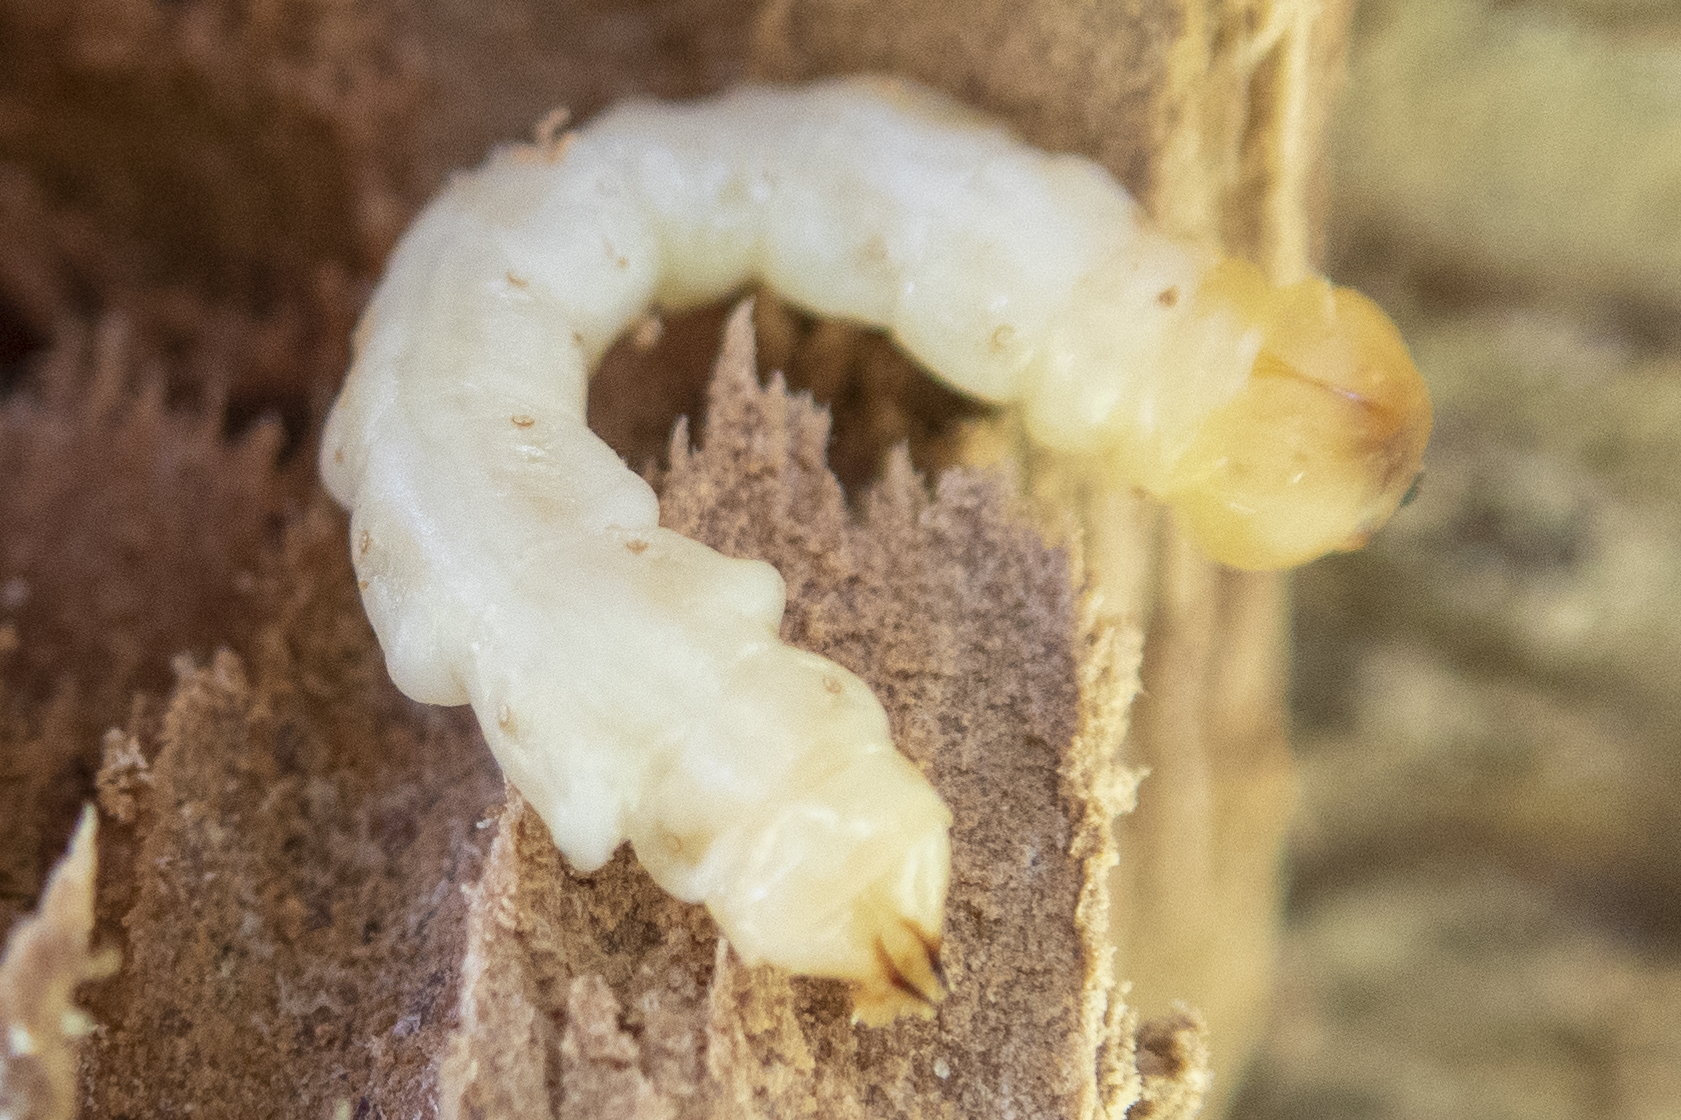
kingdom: Animalia
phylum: Arthropoda
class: Insecta
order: Coleoptera
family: Buprestidae
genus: Agrilus
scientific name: Agrilus planipennis
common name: Emerald ash borer
